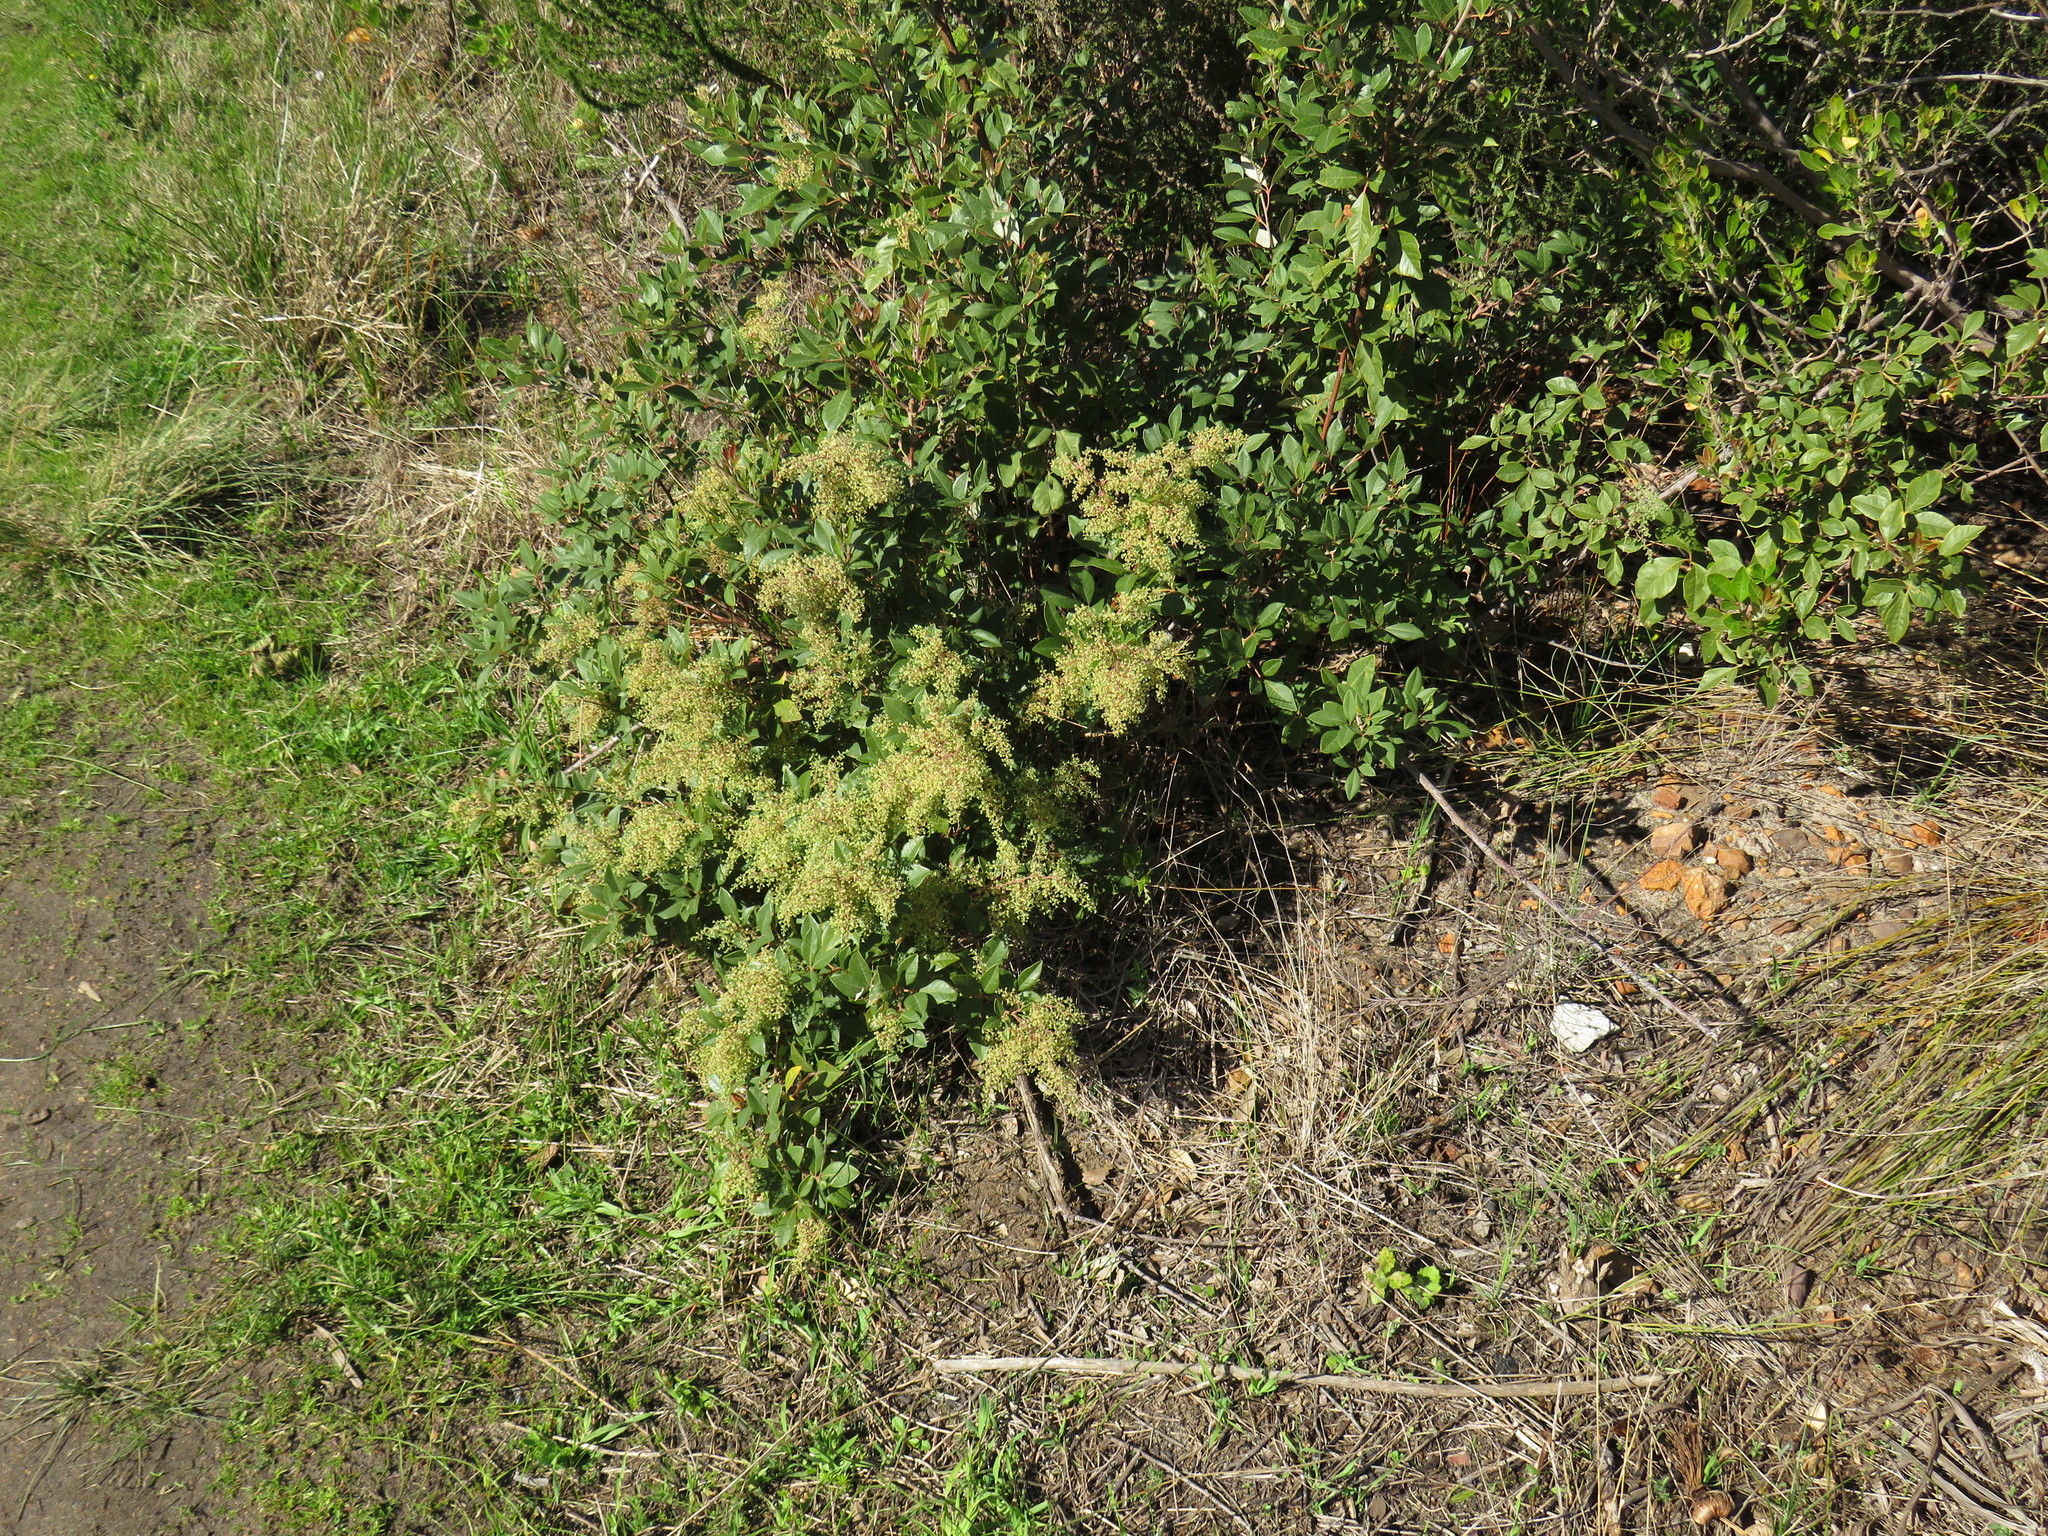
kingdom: Plantae
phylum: Tracheophyta
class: Magnoliopsida
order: Sapindales
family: Anacardiaceae
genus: Searsia
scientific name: Searsia tomentosa
